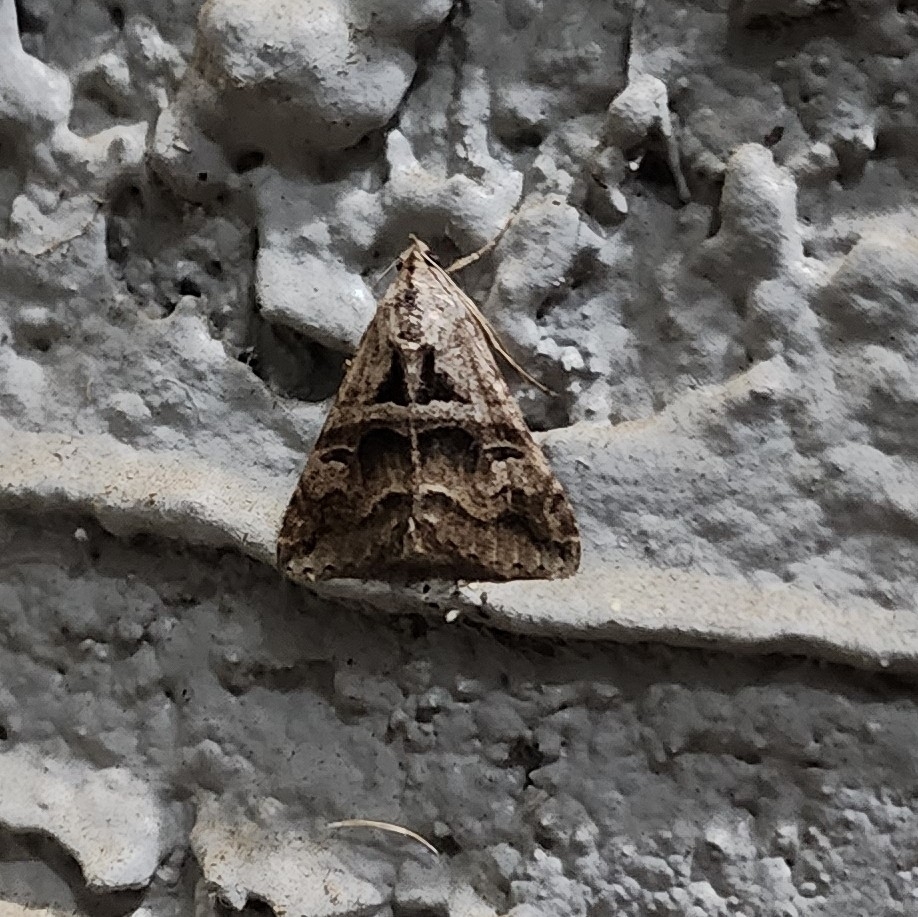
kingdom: Animalia
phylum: Arthropoda
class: Insecta
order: Lepidoptera
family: Erebidae
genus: Melipotis
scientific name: Melipotis cellaris
